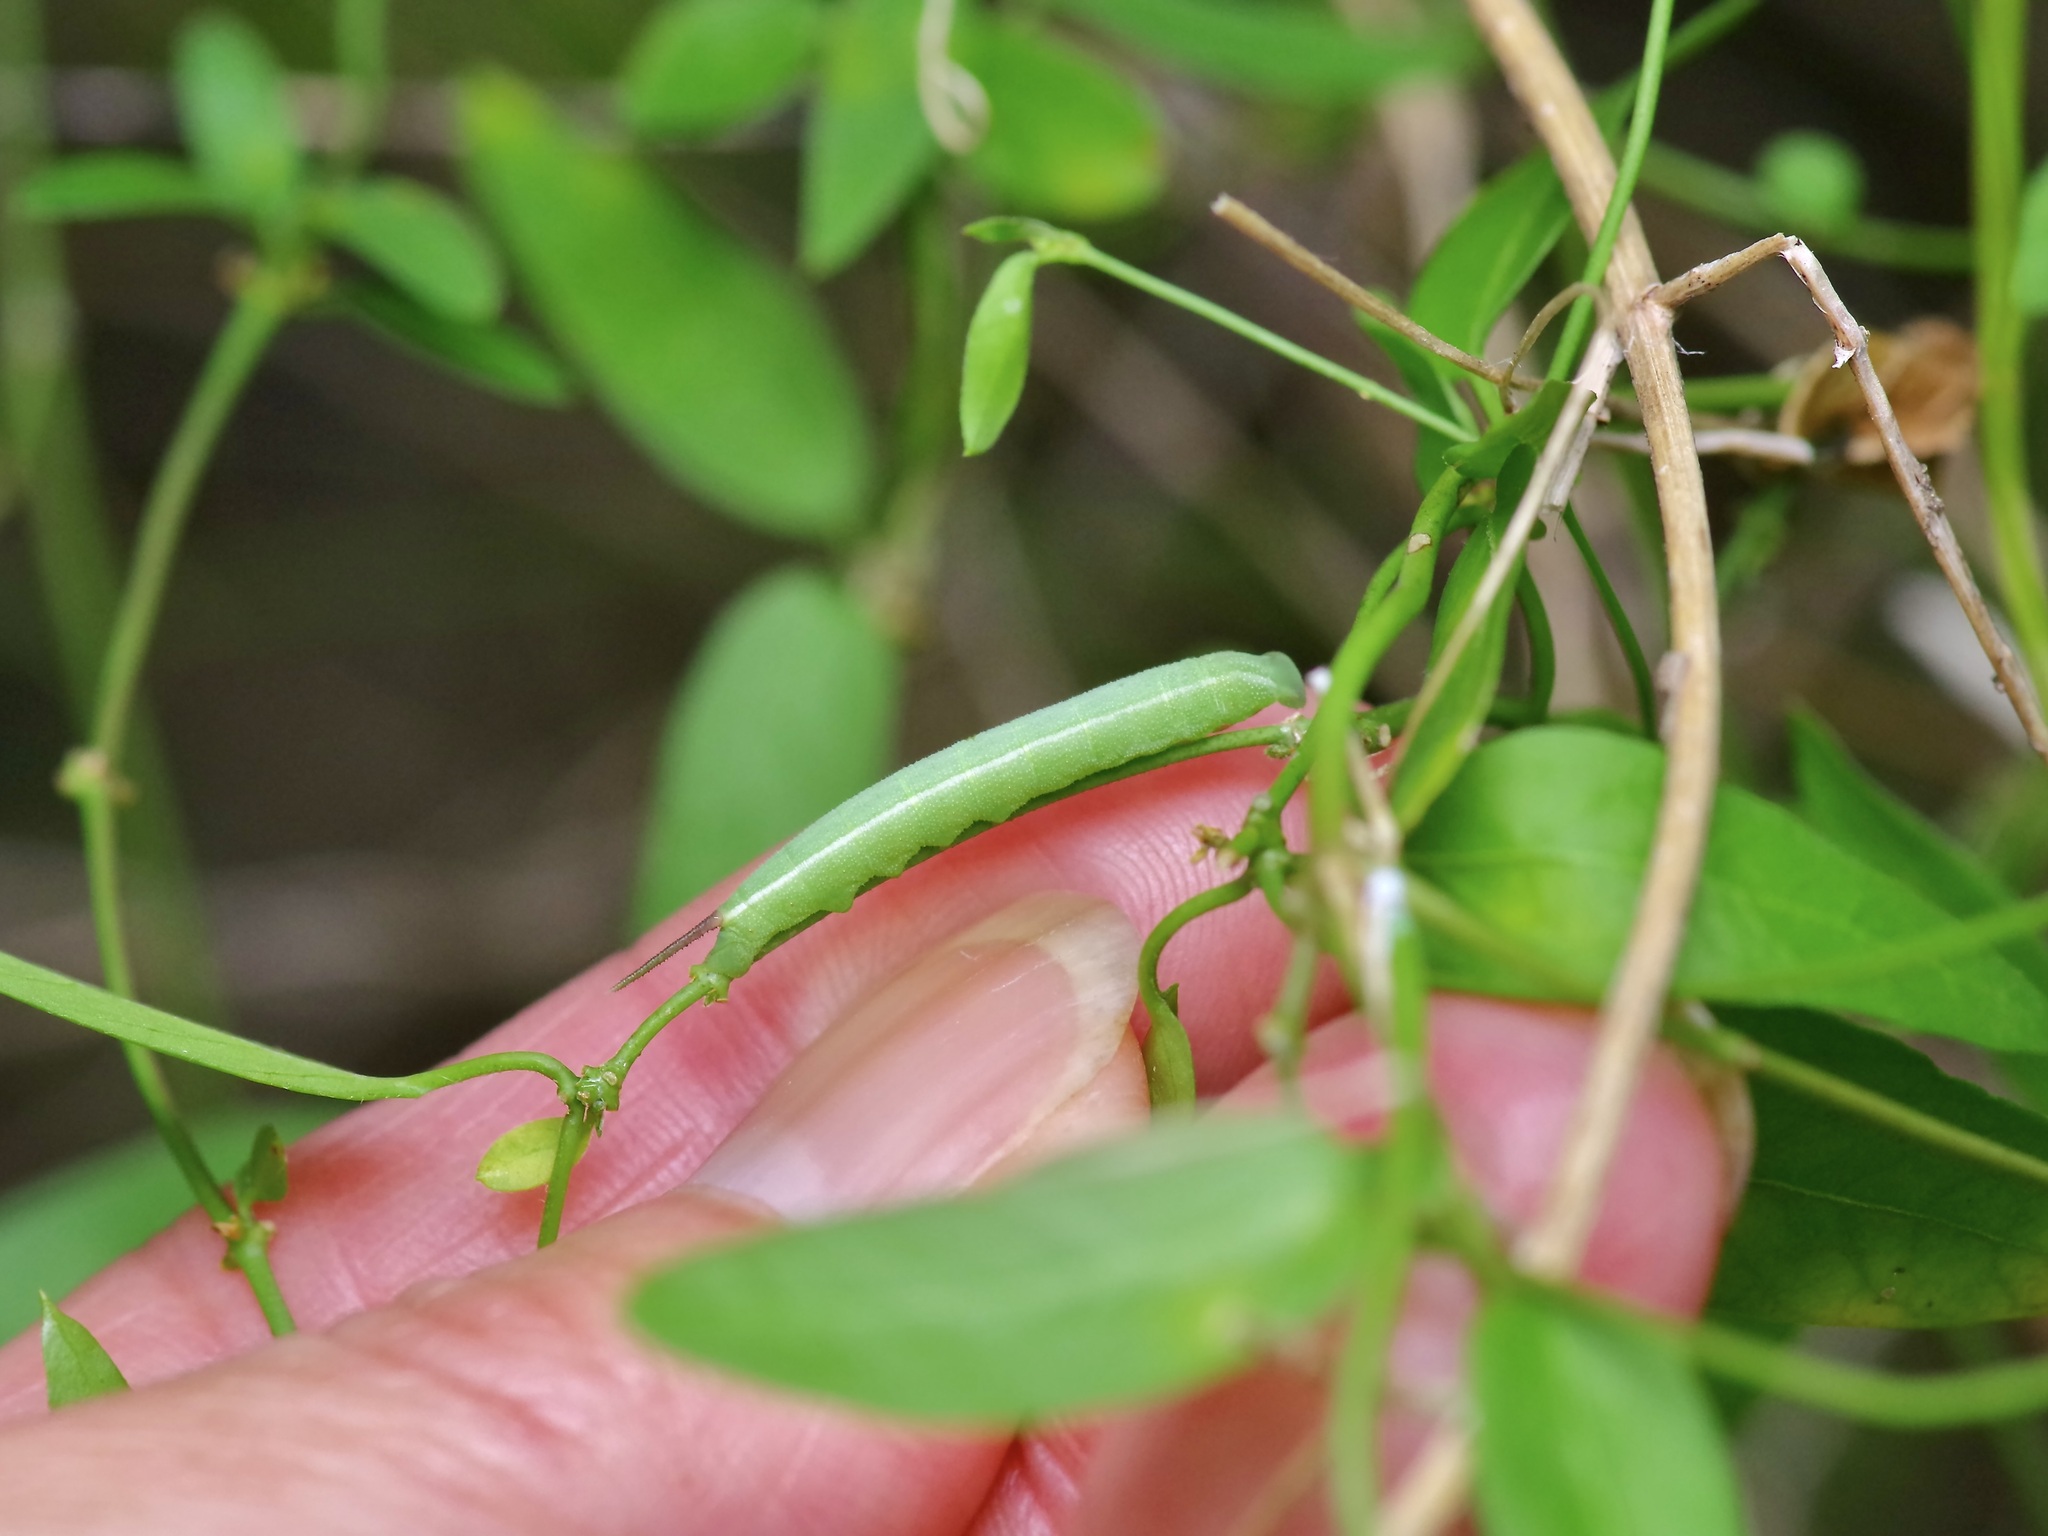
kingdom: Animalia
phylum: Arthropoda
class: Insecta
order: Lepidoptera
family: Sphingidae
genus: Erinnyis
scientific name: Erinnyis obscura
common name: Obscure sphinx
